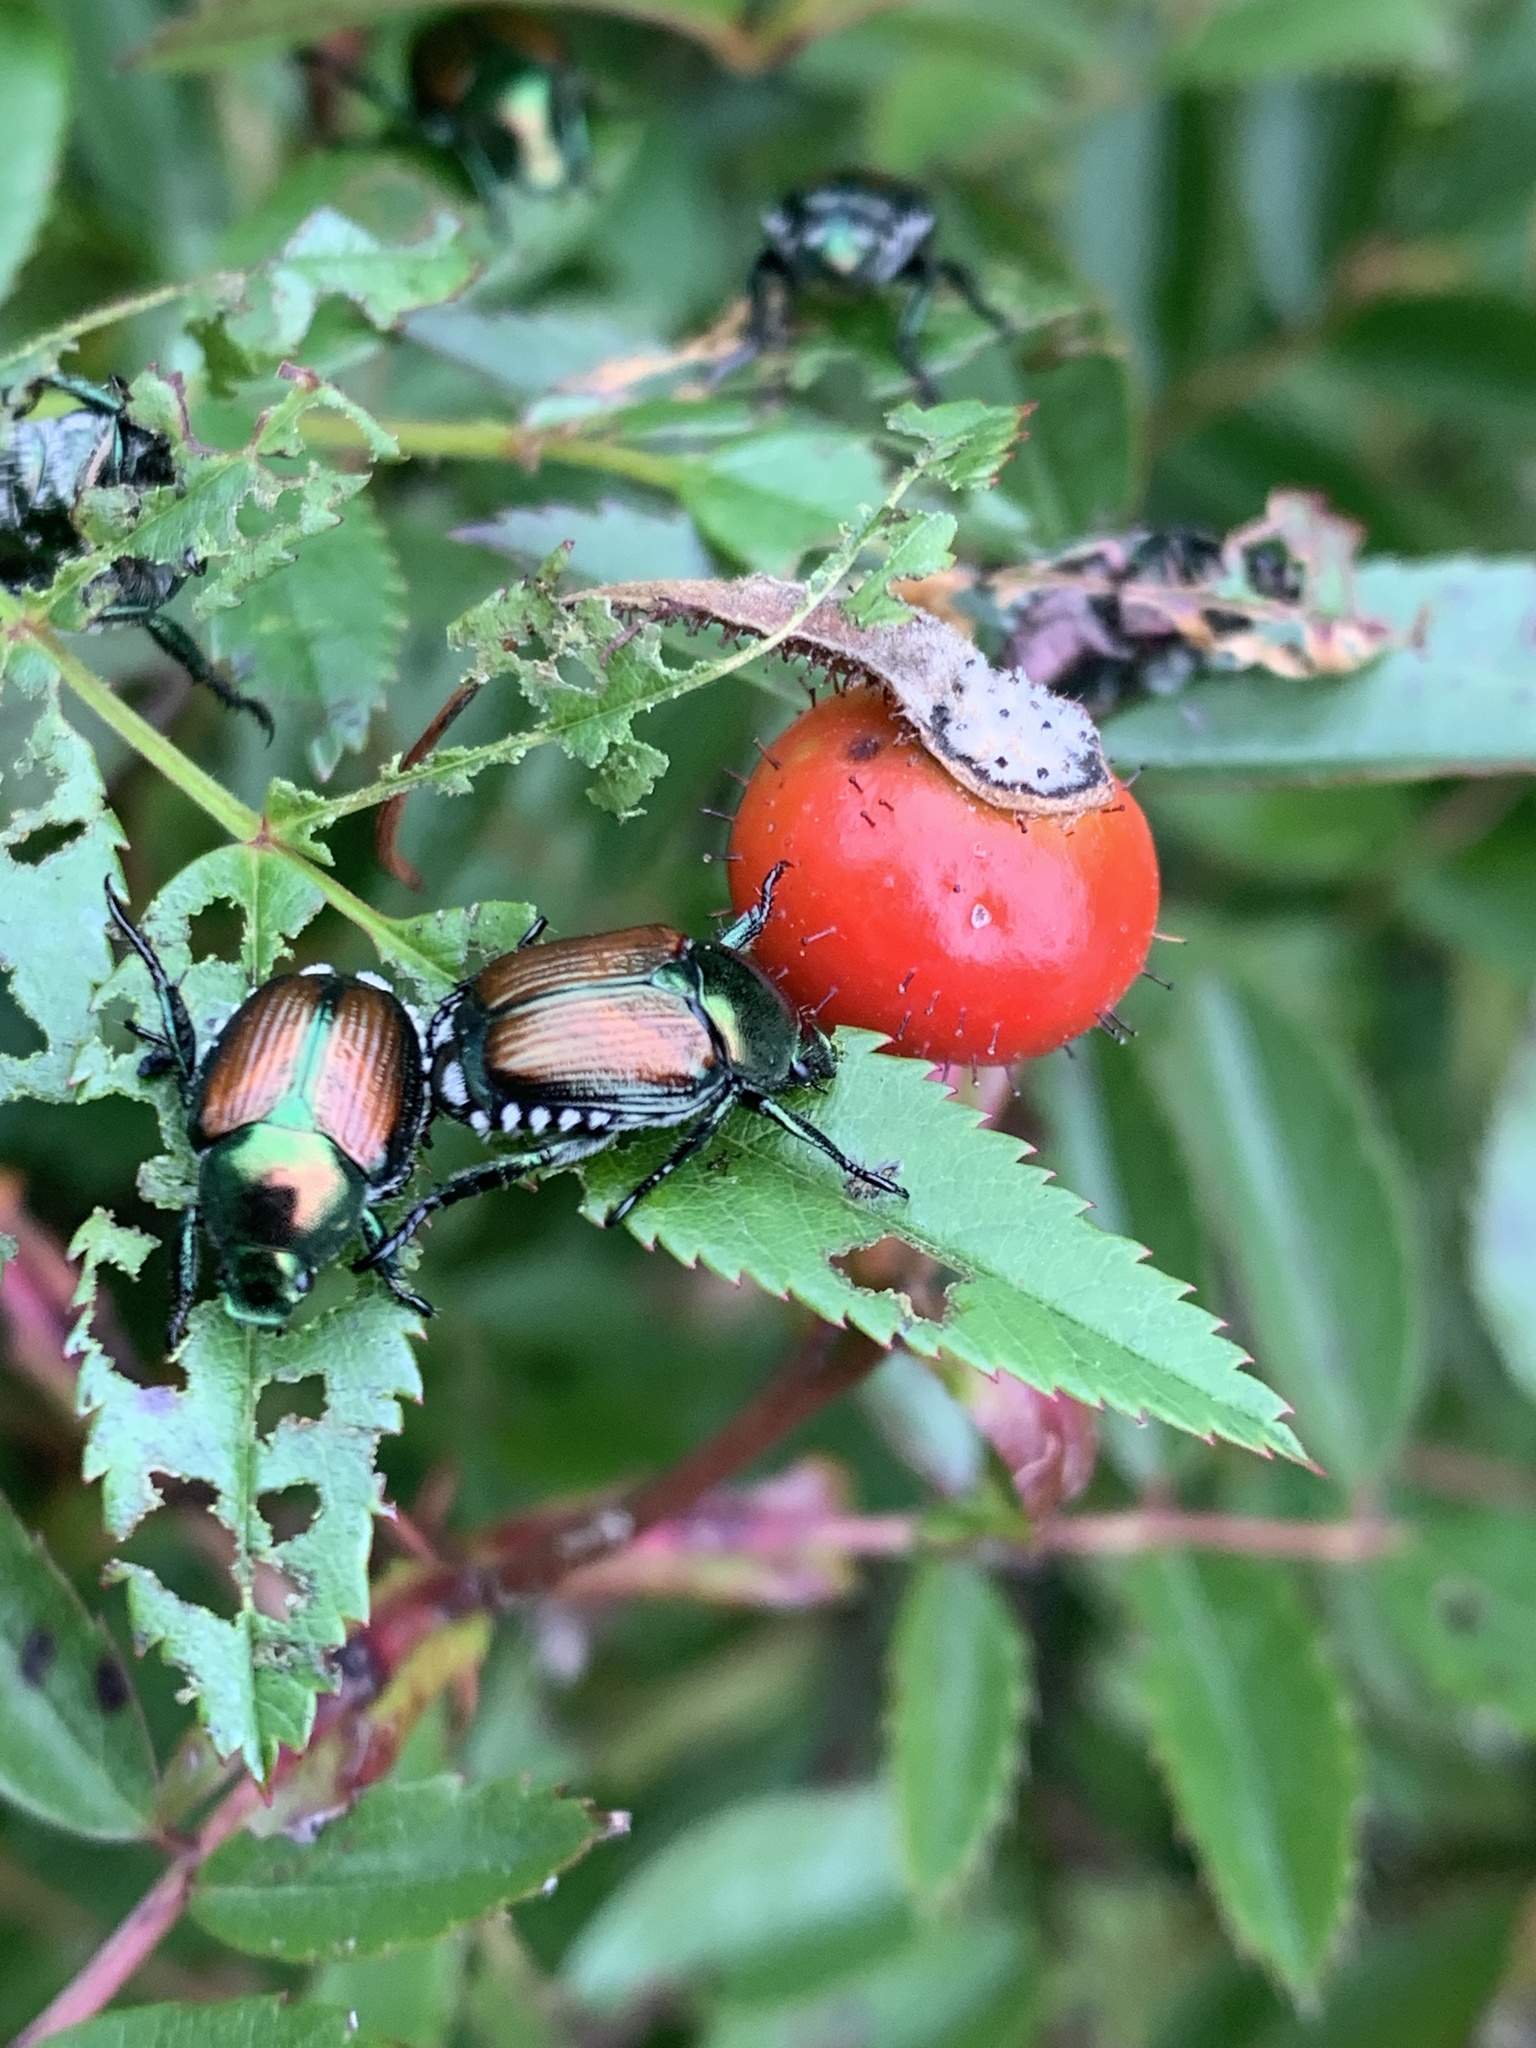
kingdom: Animalia
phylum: Arthropoda
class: Insecta
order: Coleoptera
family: Scarabaeidae
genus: Popillia
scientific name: Popillia japonica
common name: Japanese beetle
